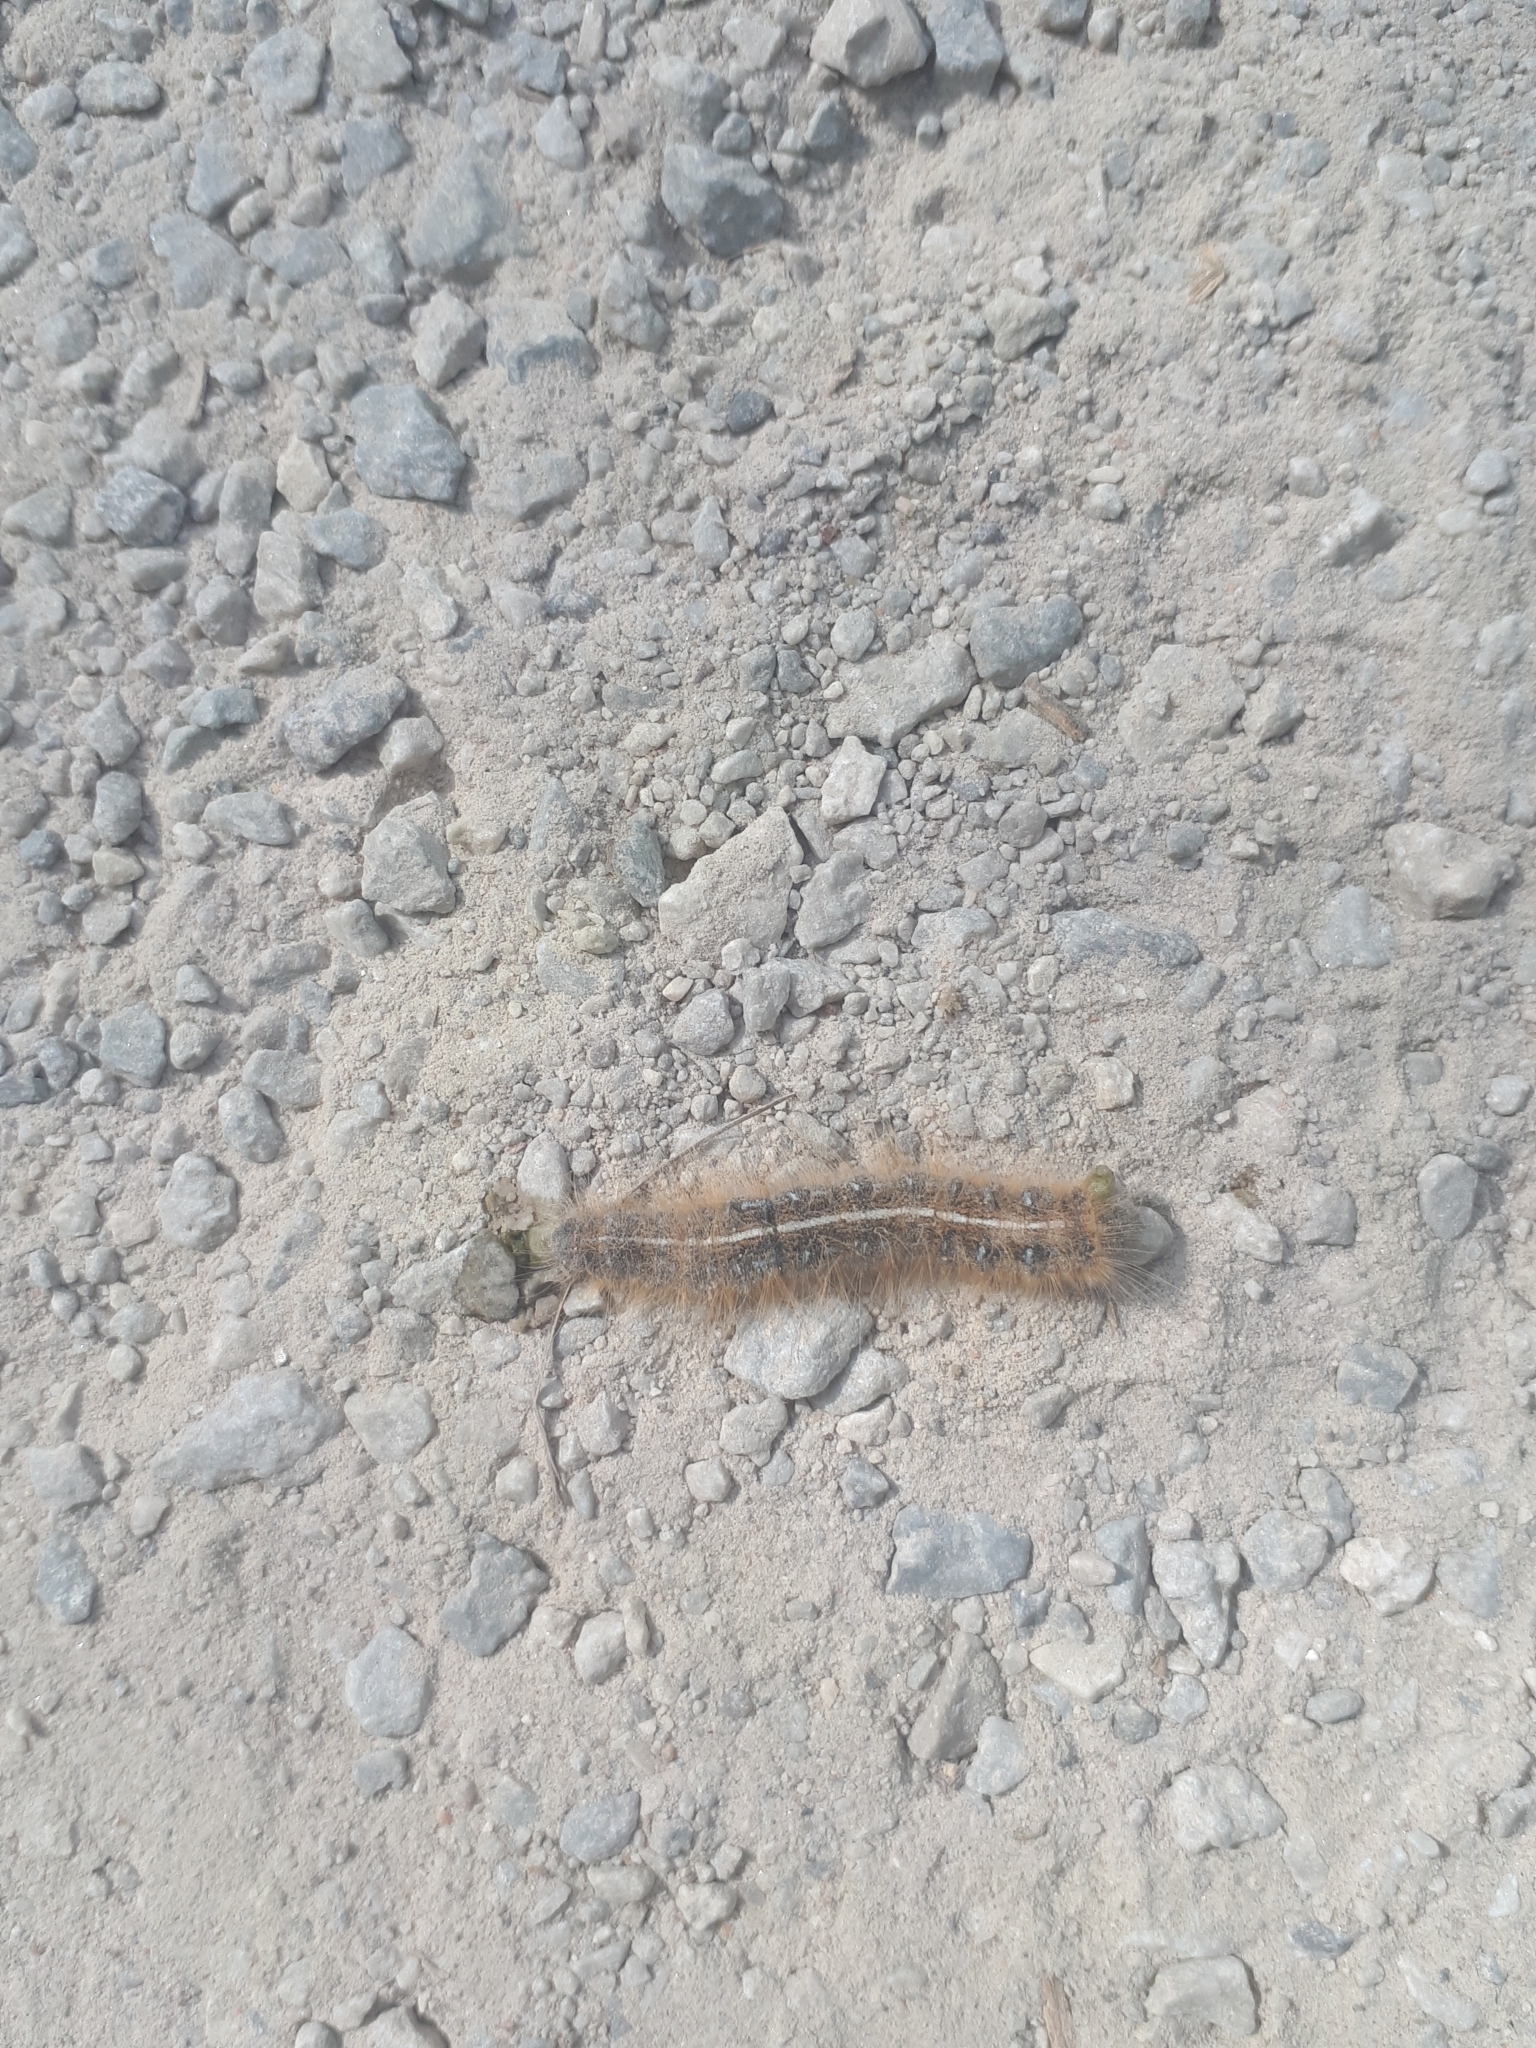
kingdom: Animalia
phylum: Arthropoda
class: Insecta
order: Lepidoptera
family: Lasiocampidae
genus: Malacosoma
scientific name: Malacosoma americana
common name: Eastern tent caterpillar moth
